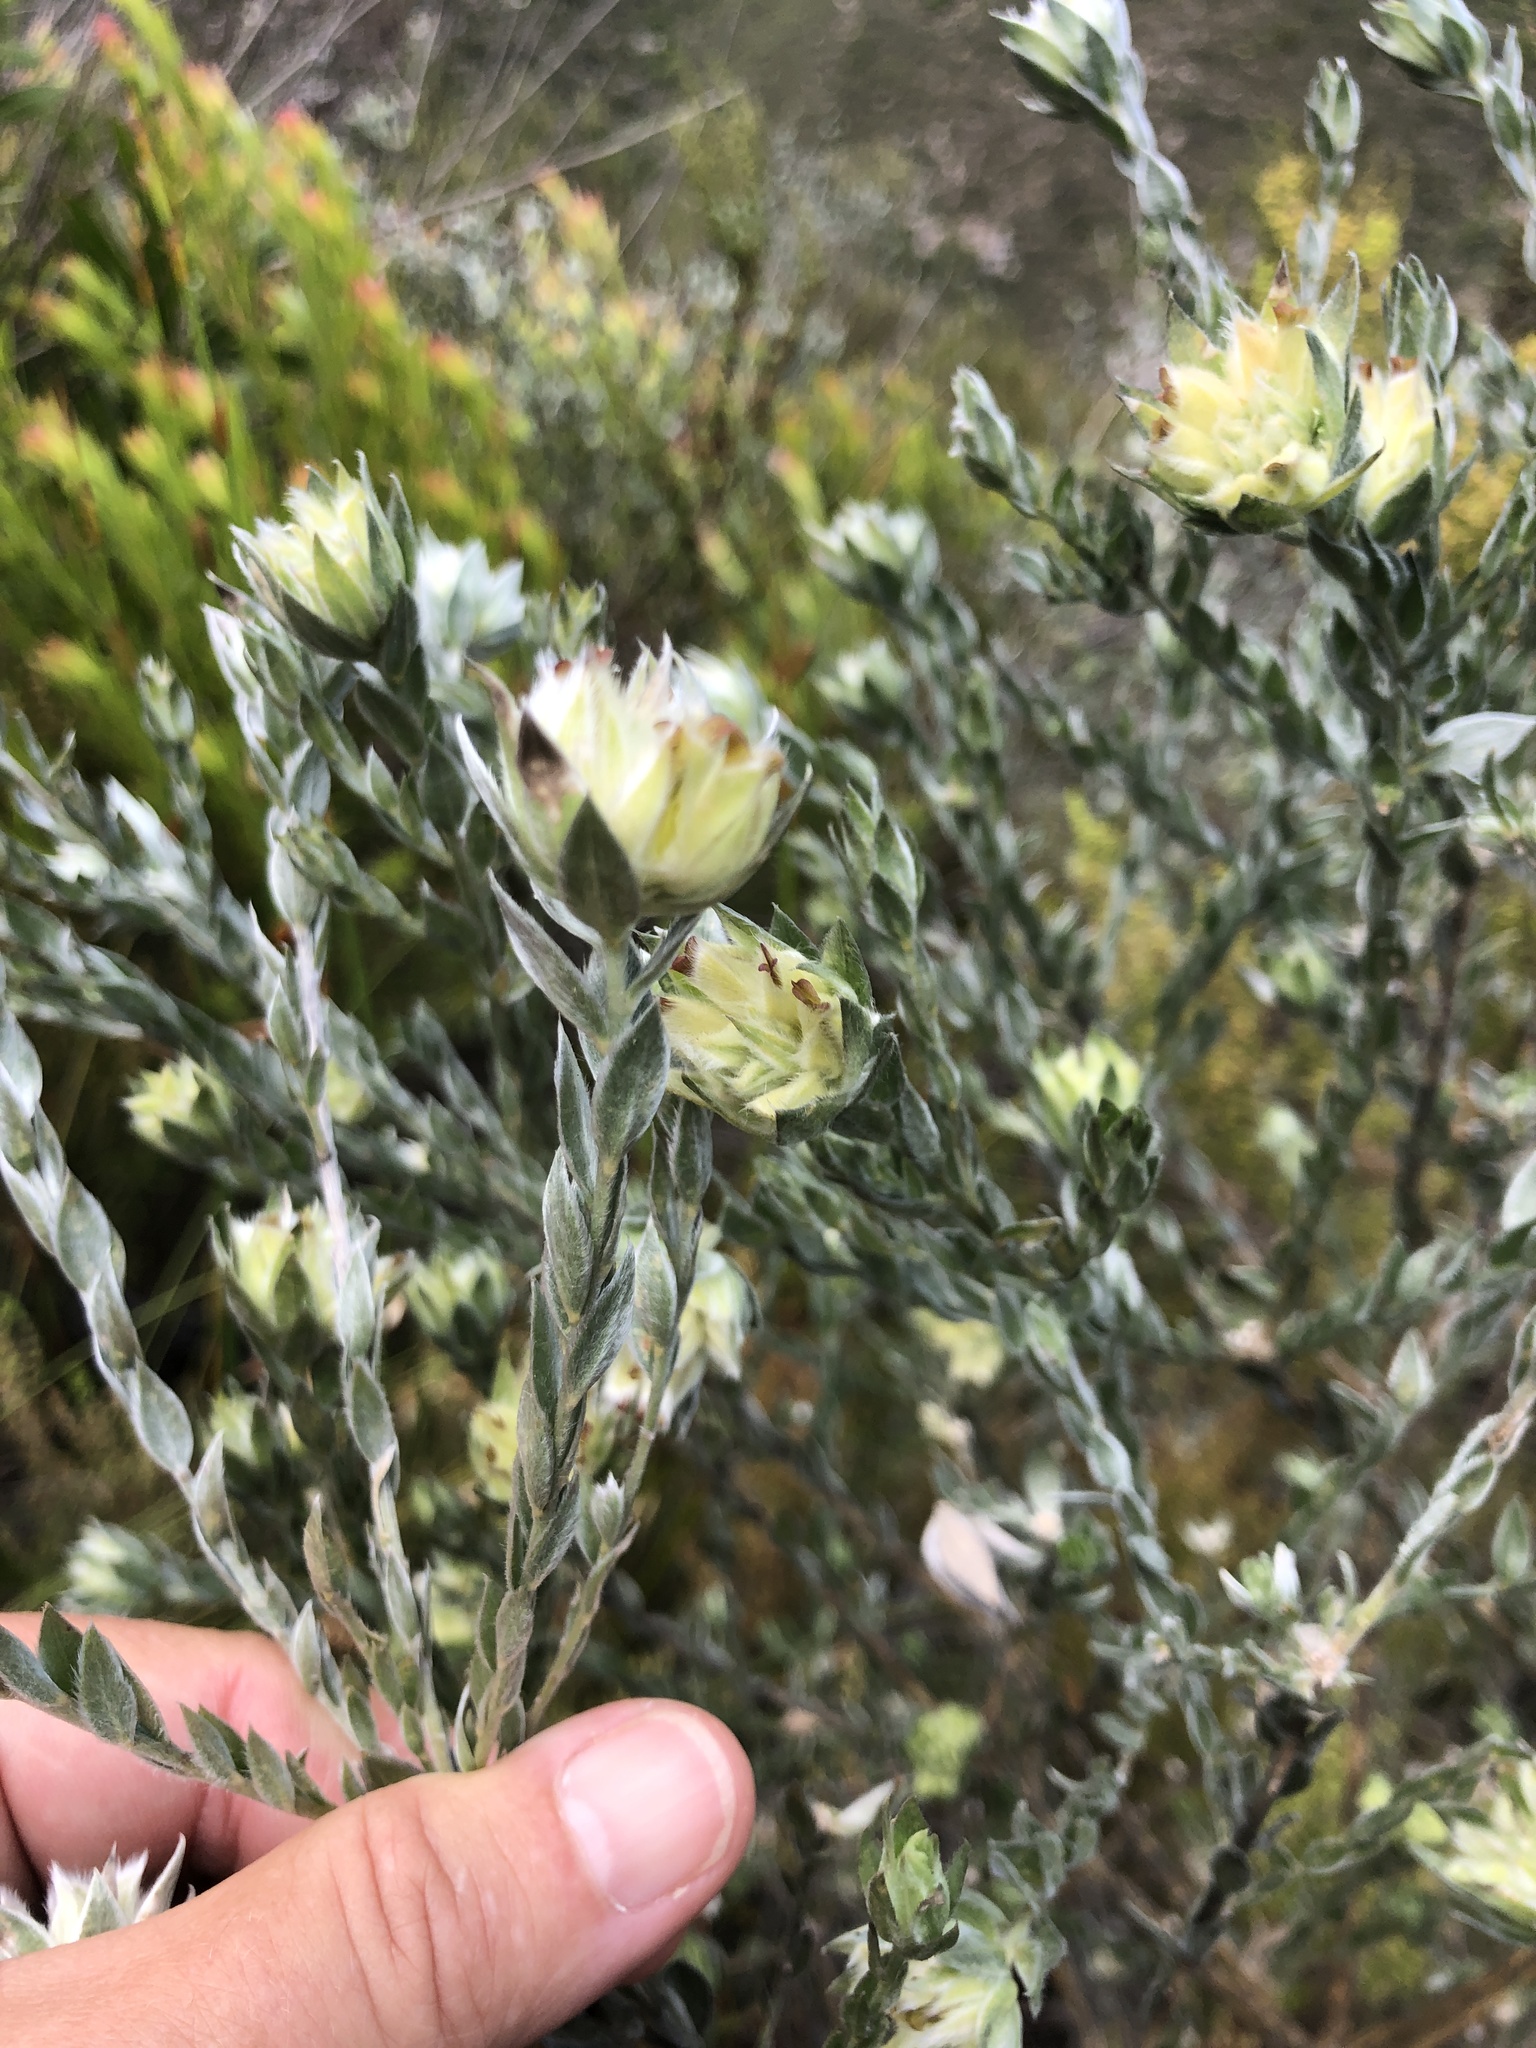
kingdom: Plantae
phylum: Tracheophyta
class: Magnoliopsida
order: Fabales
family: Fabaceae
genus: Amphithalea
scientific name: Amphithalea tomentosa
